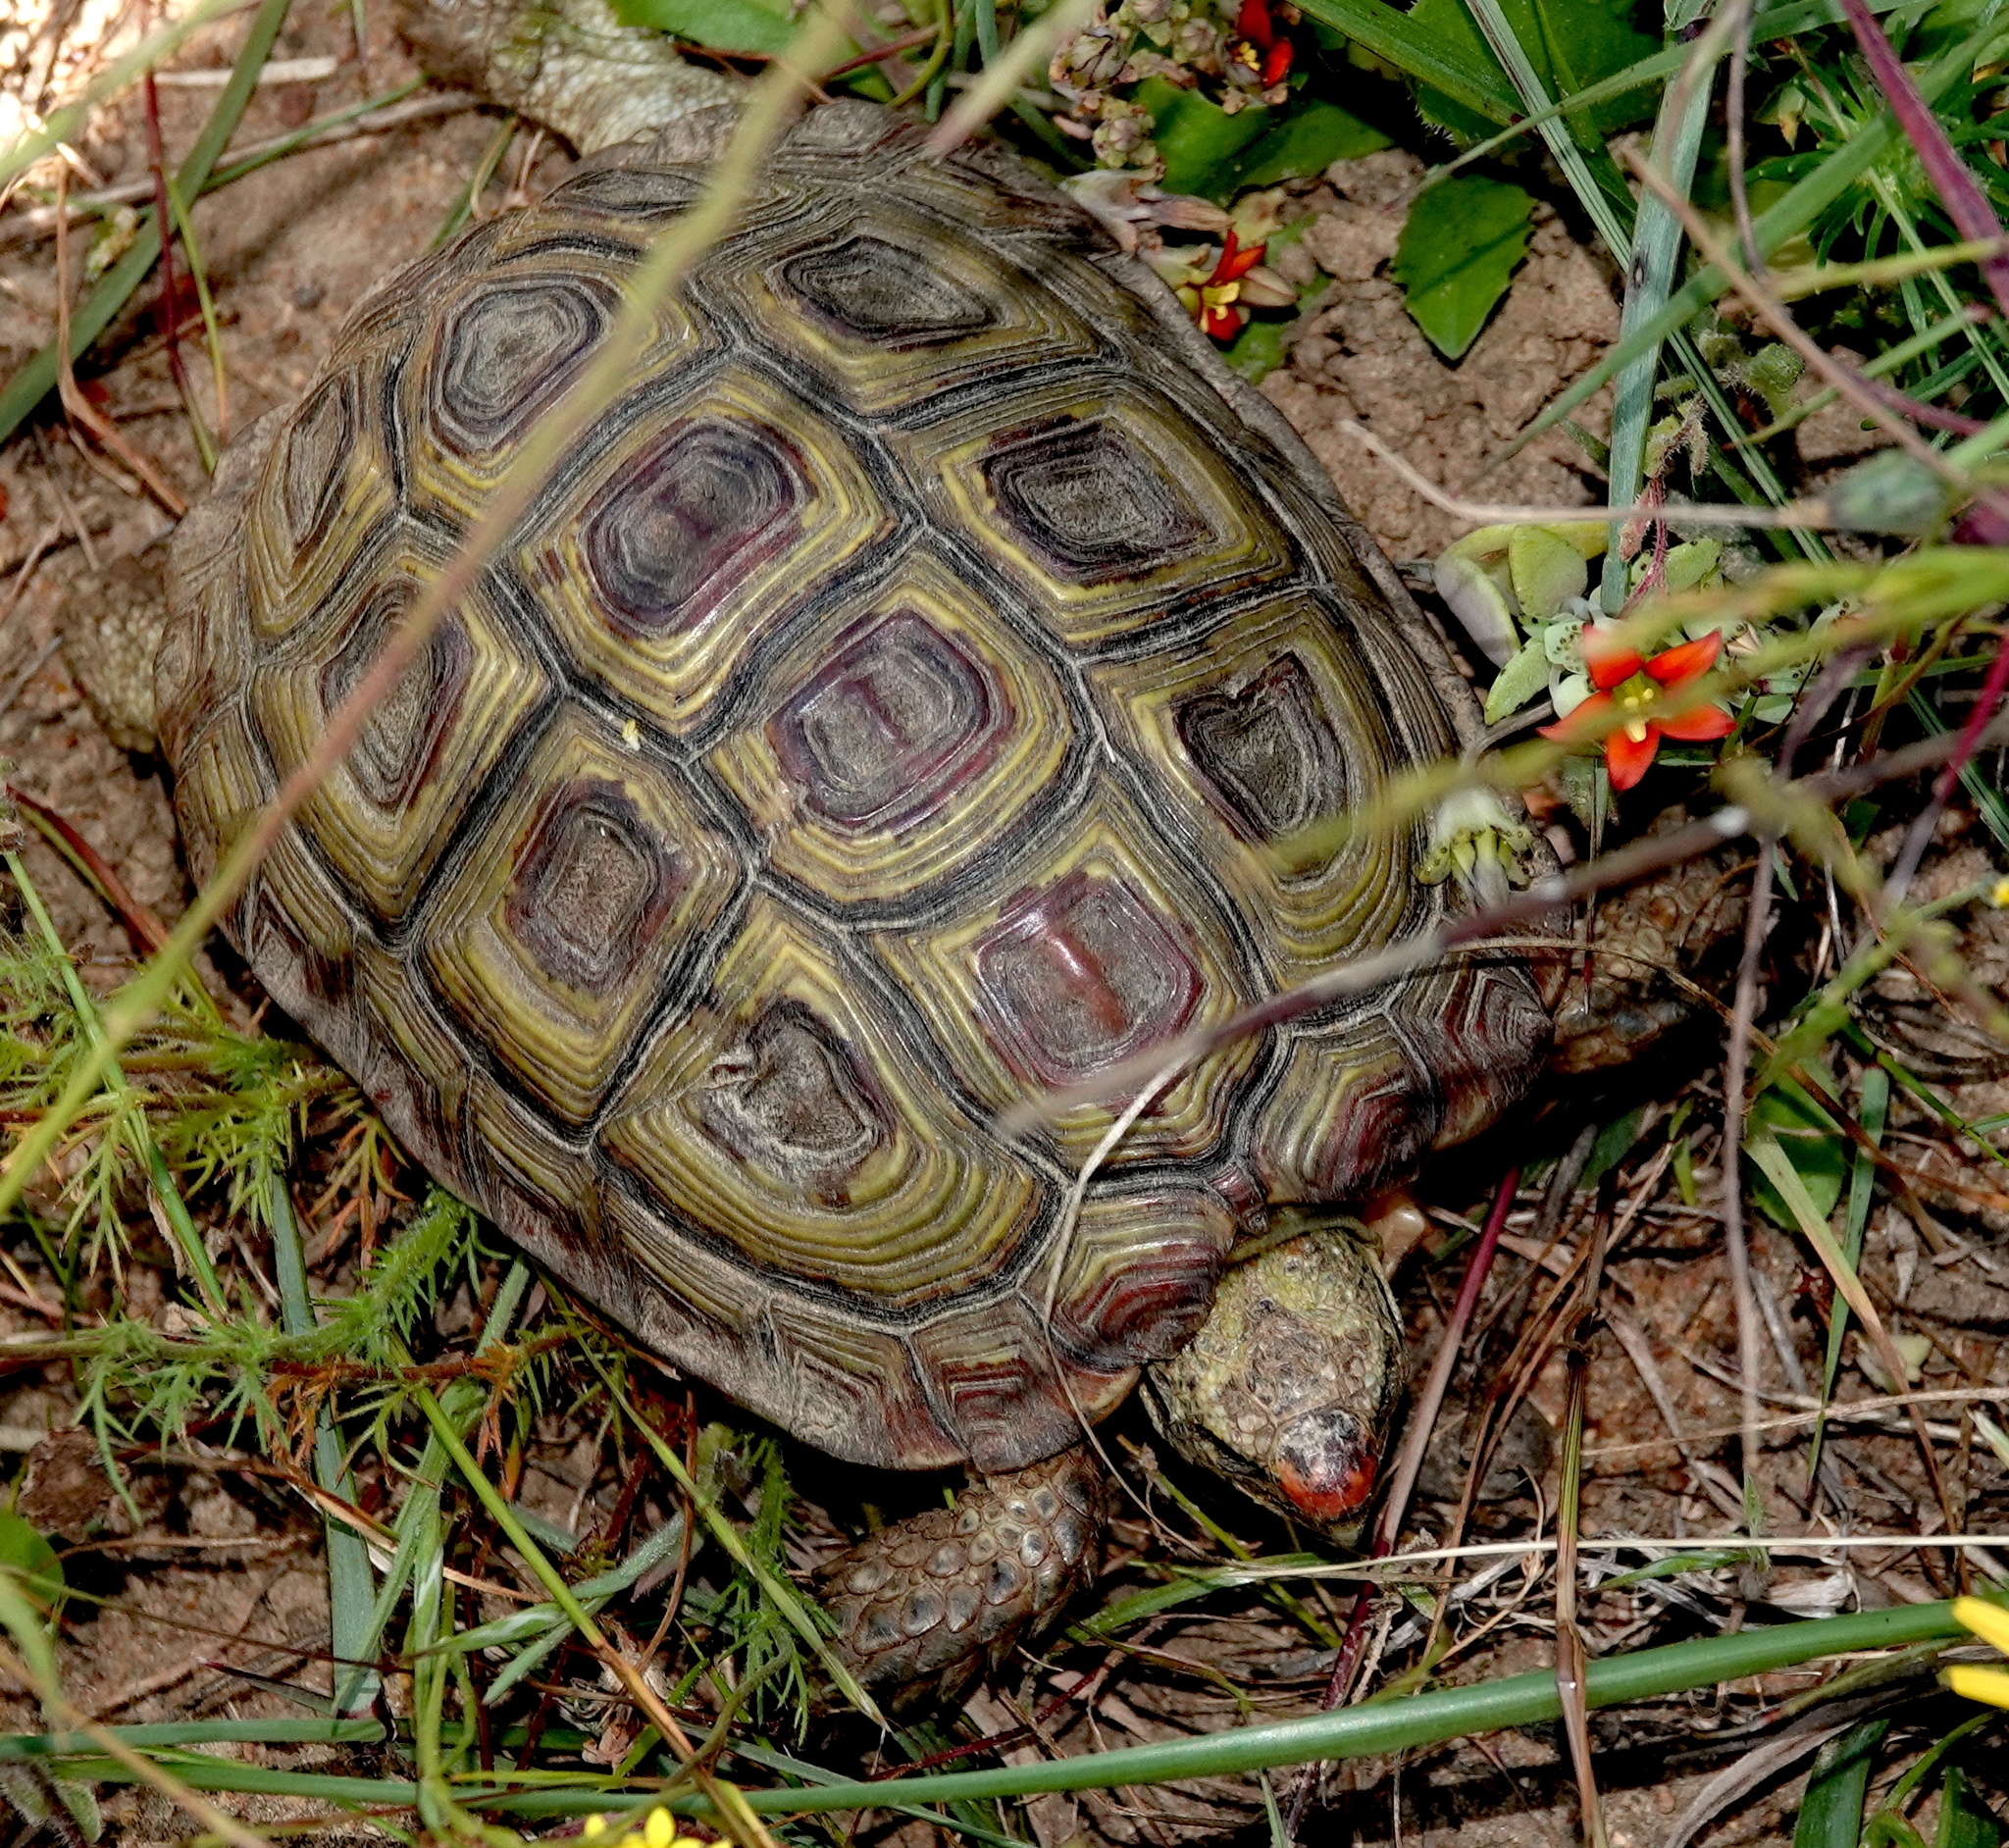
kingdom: Animalia
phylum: Chordata
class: Testudines
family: Testudinidae
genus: Homopus
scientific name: Homopus areolatus
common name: Parrot-beaked tortoise
